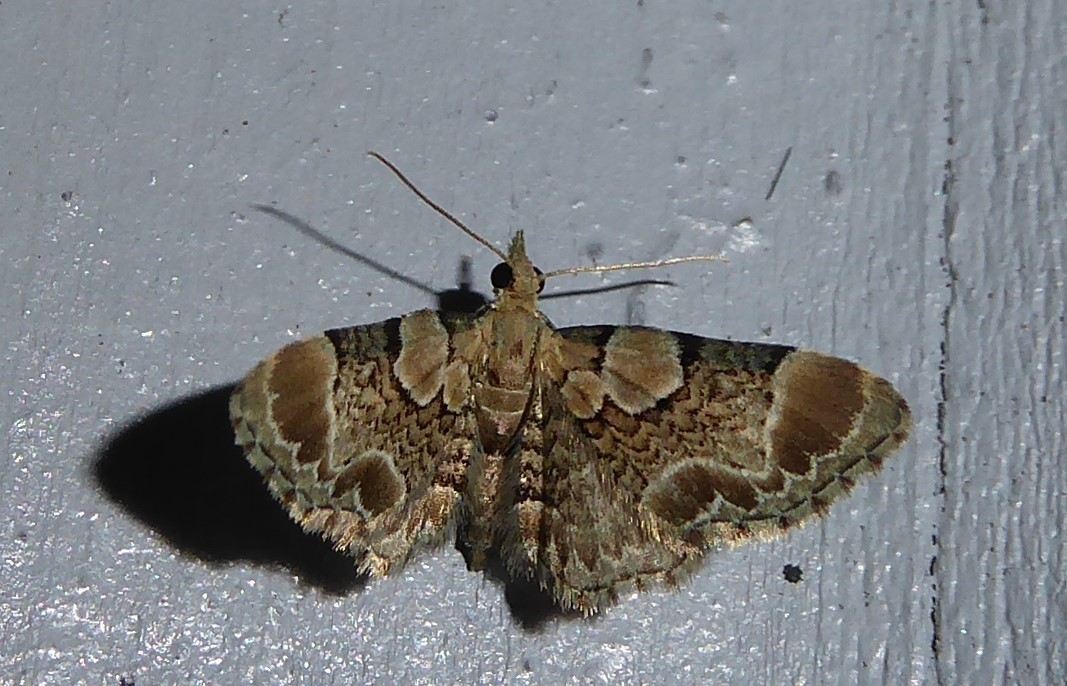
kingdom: Animalia
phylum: Arthropoda
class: Insecta
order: Lepidoptera
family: Geometridae
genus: Chloroclystis
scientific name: Chloroclystis
